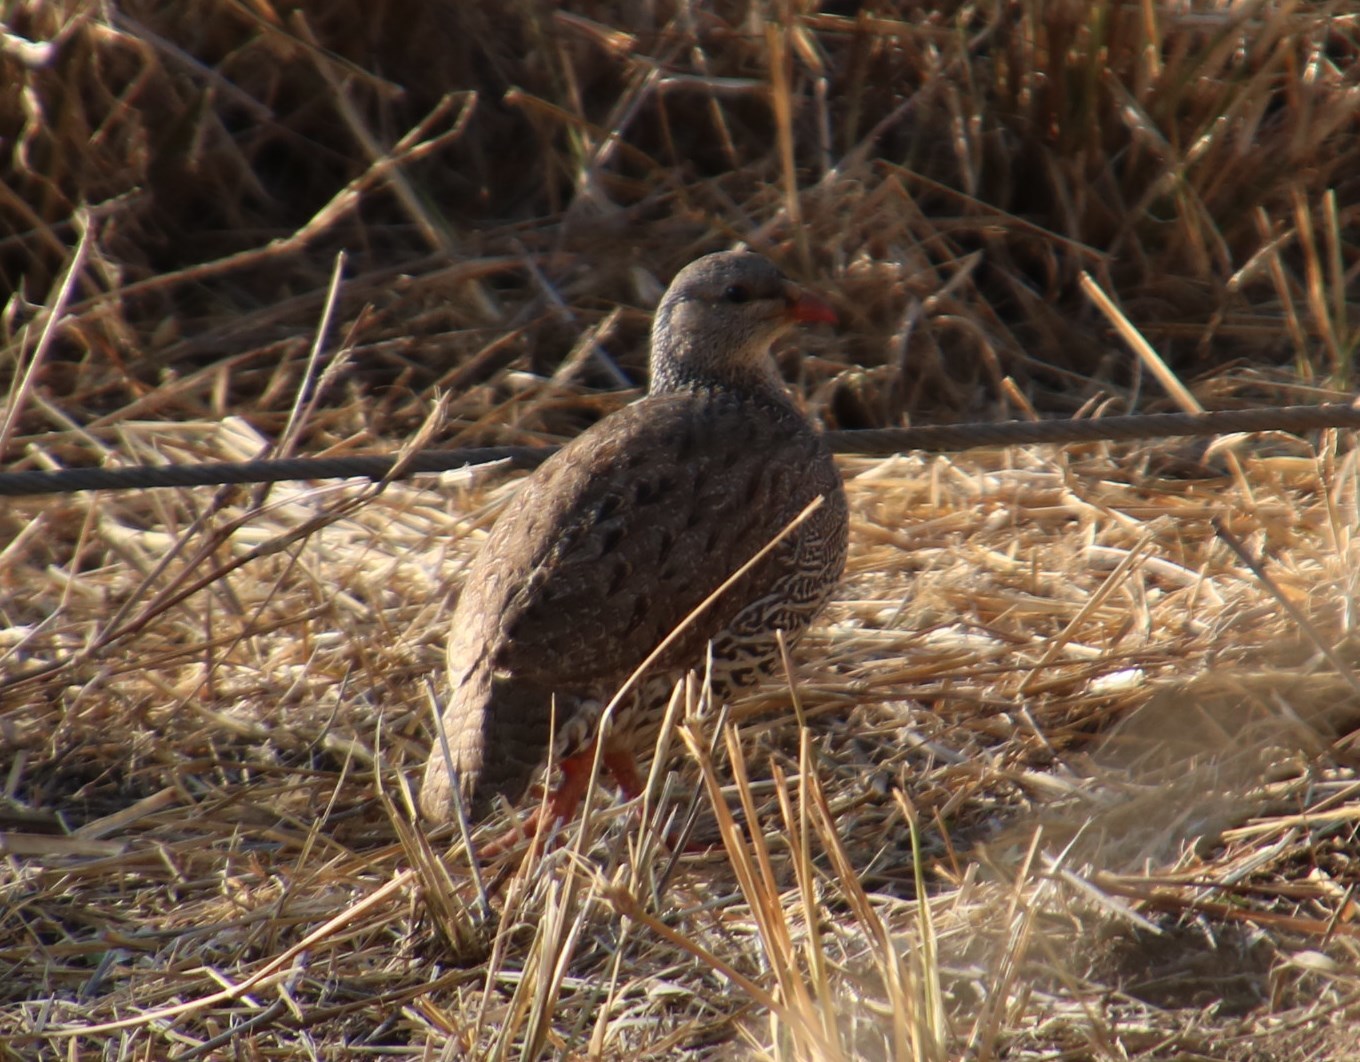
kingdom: Animalia
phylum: Chordata
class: Aves
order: Galliformes
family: Phasianidae
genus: Pternistis
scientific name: Pternistis natalensis
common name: Natal spurfowl
